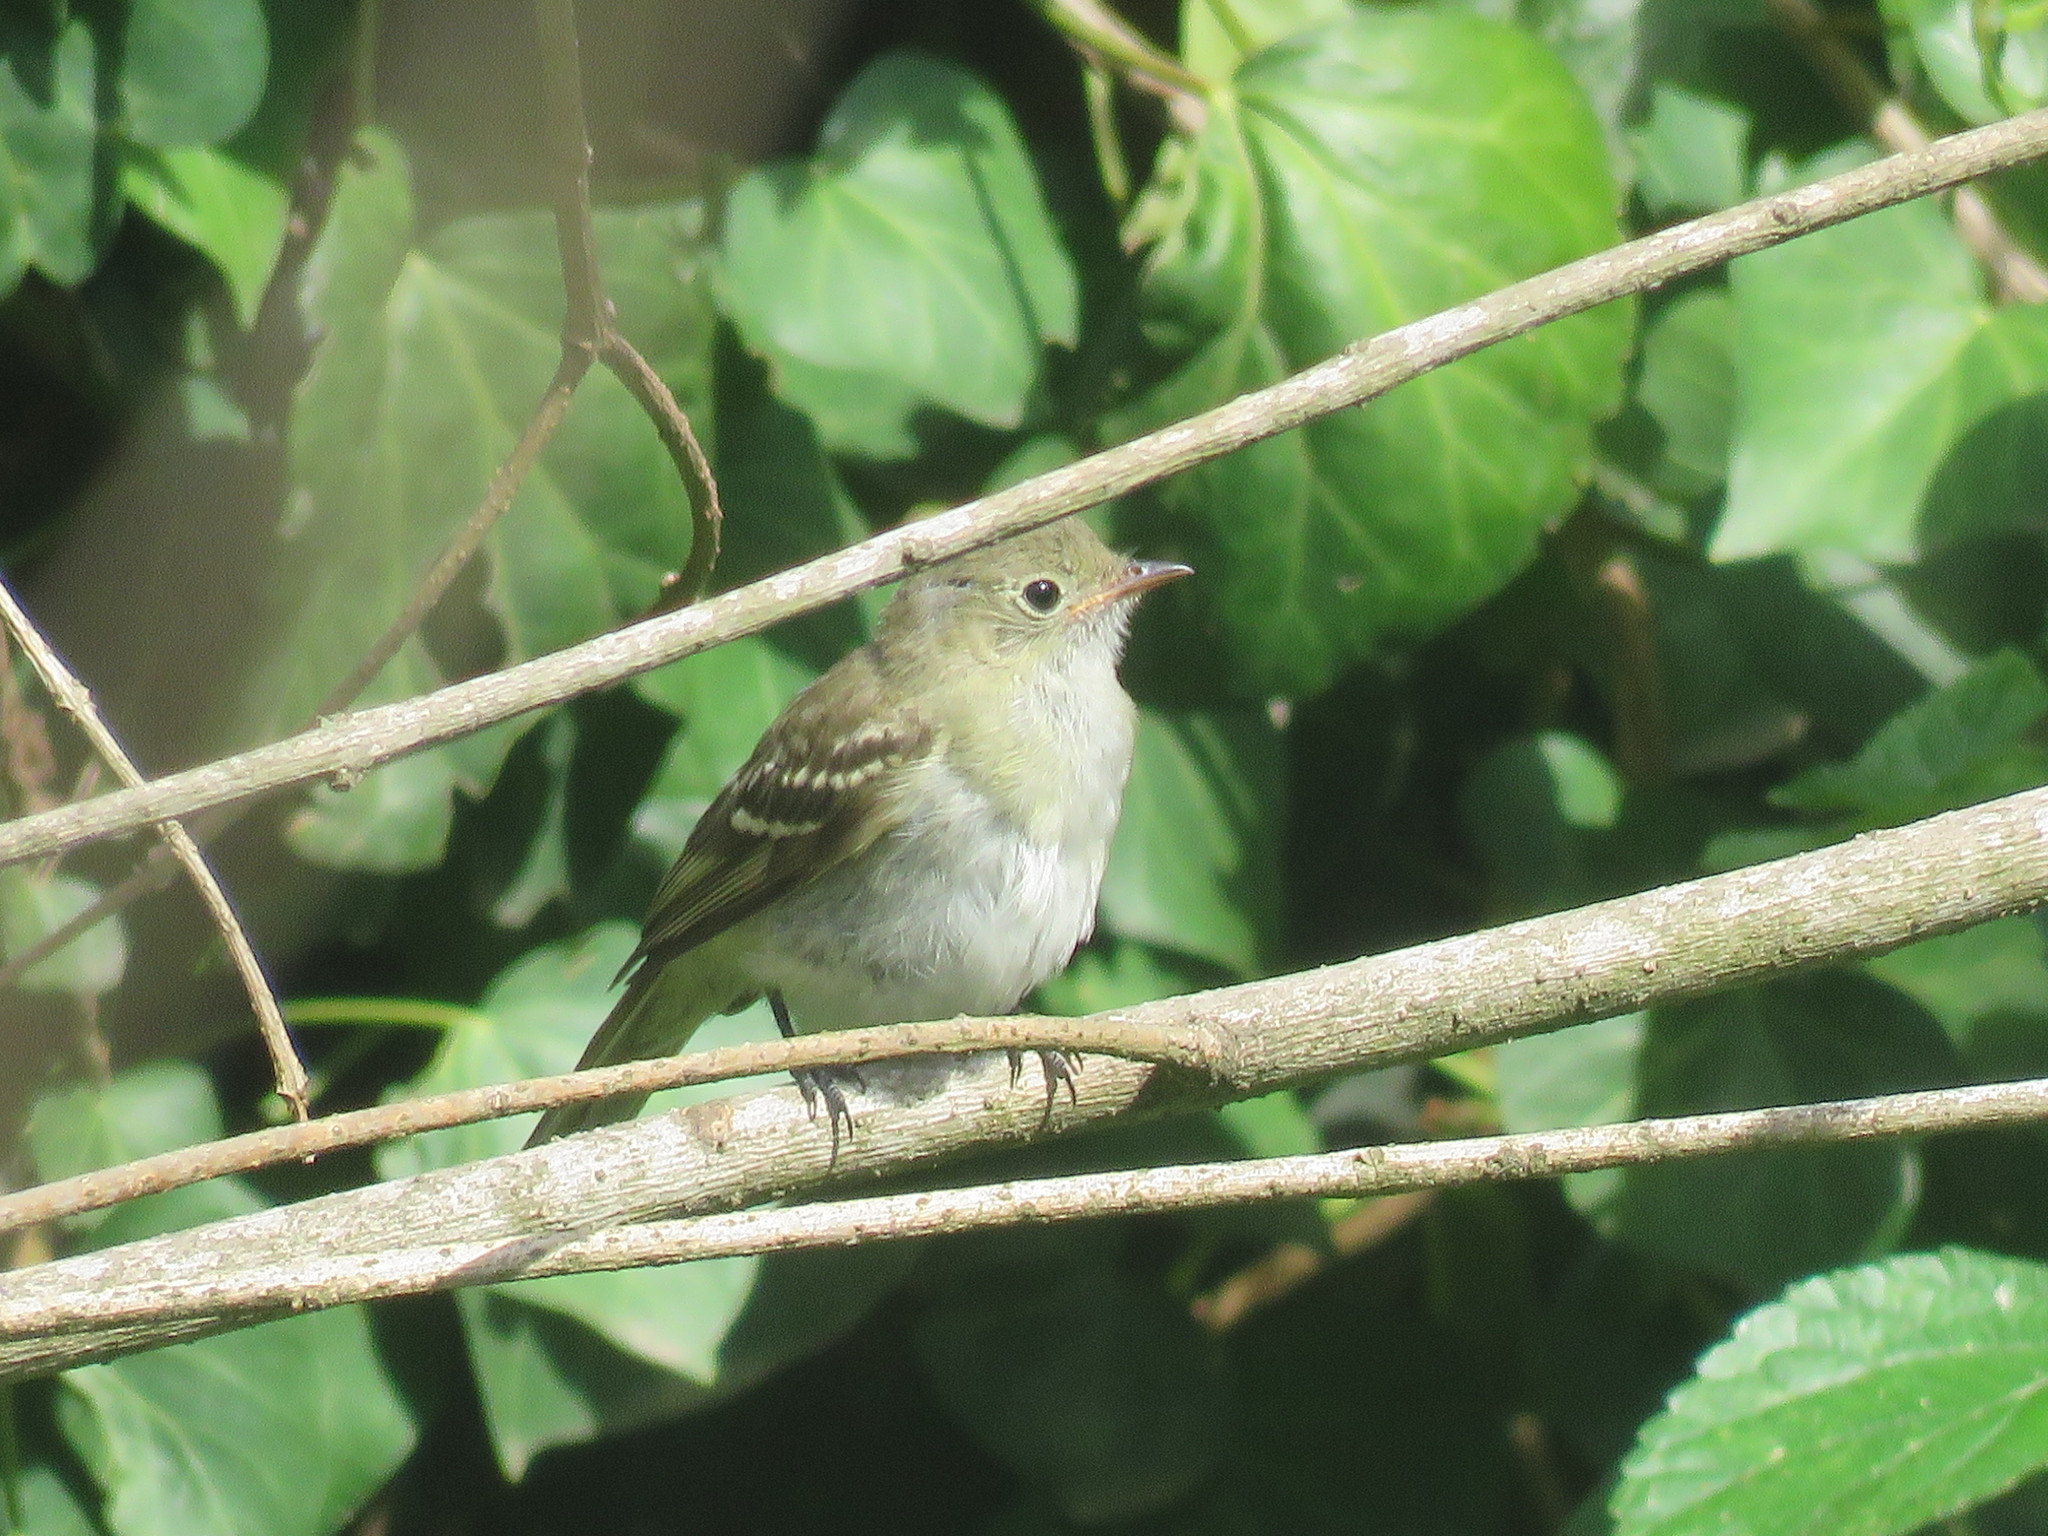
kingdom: Animalia
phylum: Chordata
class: Aves
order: Passeriformes
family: Tyrannidae
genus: Elaenia
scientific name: Elaenia parvirostris
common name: Small-billed elaenia
